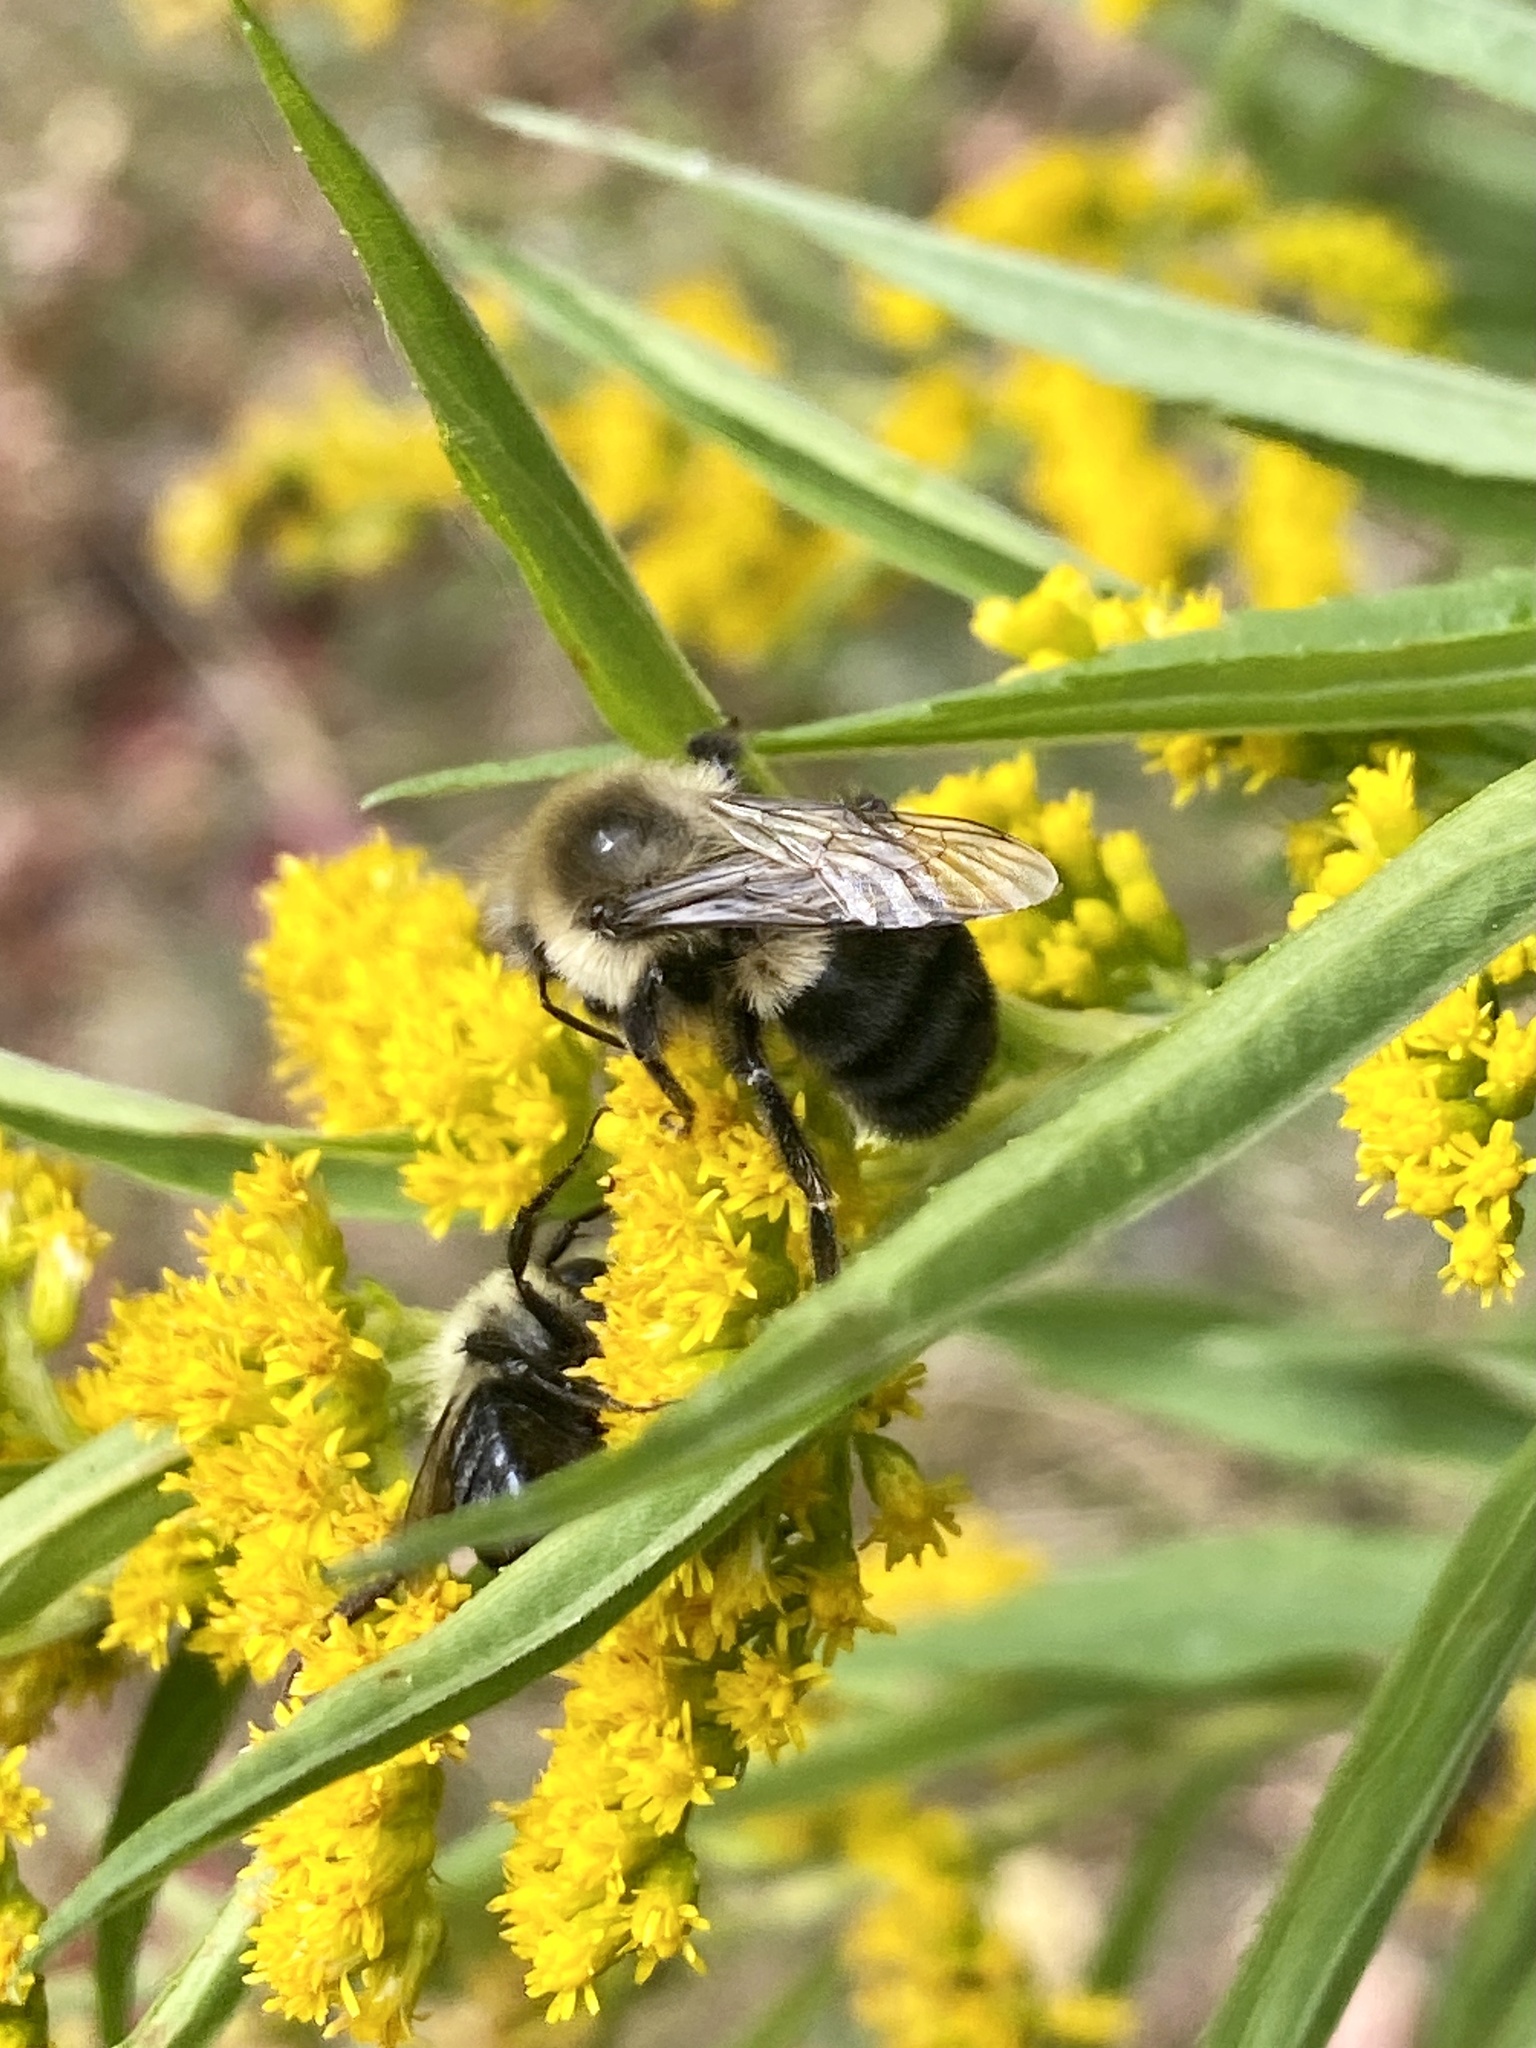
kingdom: Animalia
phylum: Arthropoda
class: Insecta
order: Hymenoptera
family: Apidae
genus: Bombus
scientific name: Bombus impatiens
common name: Common eastern bumble bee
